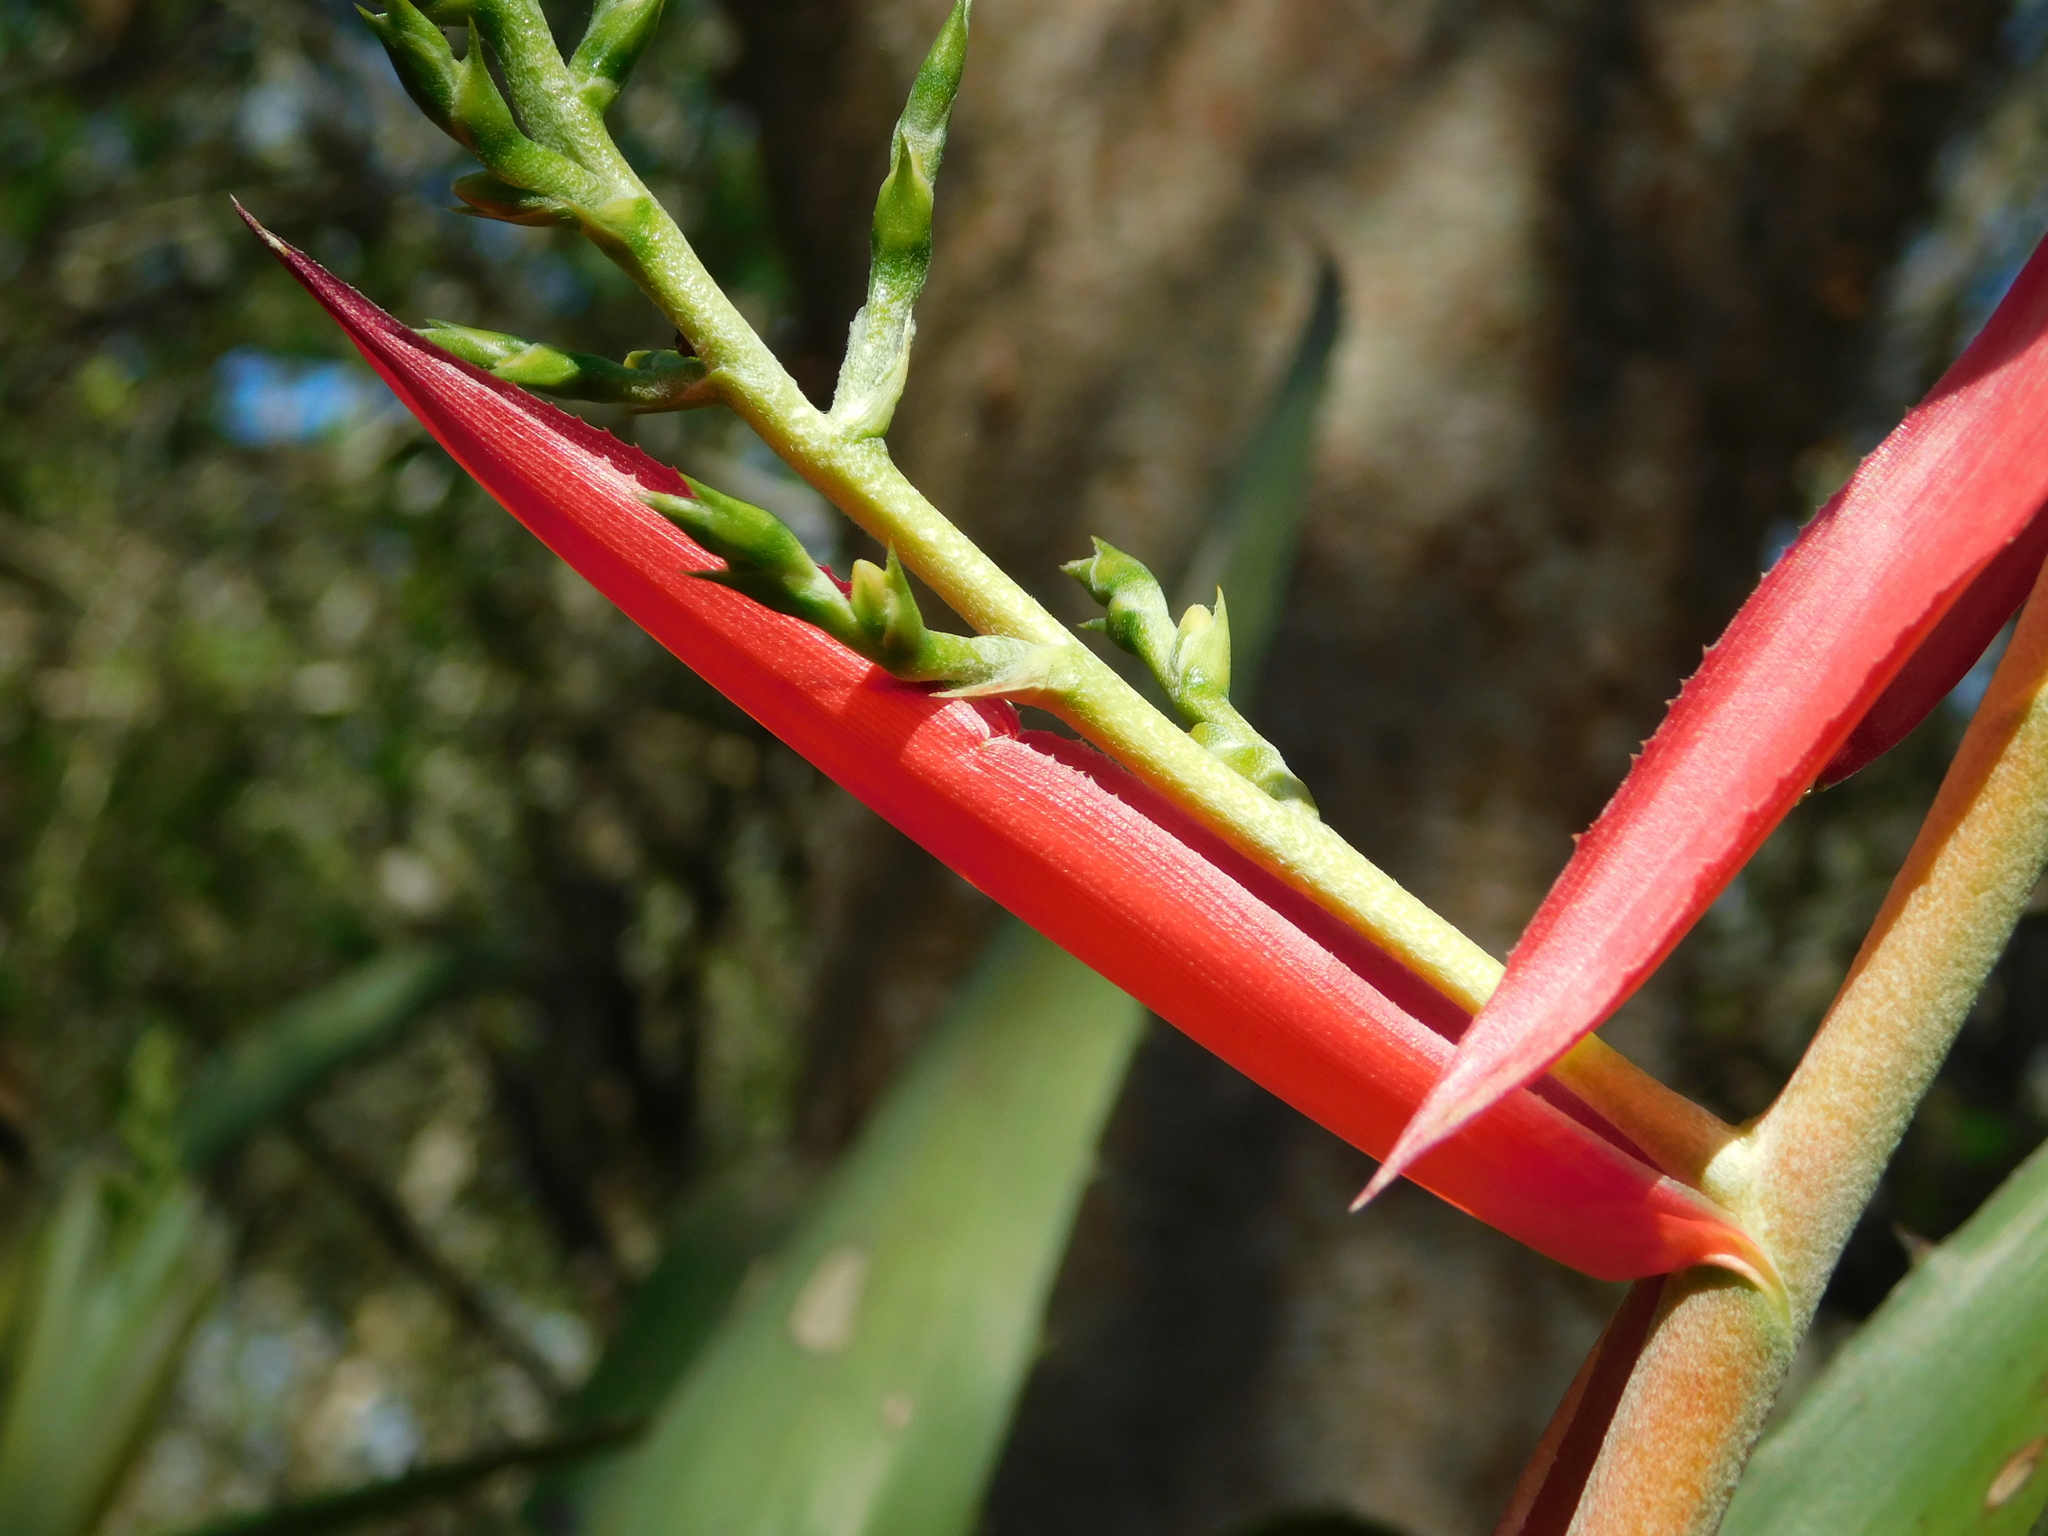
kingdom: Plantae
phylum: Tracheophyta
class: Liliopsida
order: Poales
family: Bromeliaceae
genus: Aechmea
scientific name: Aechmea bracteata
